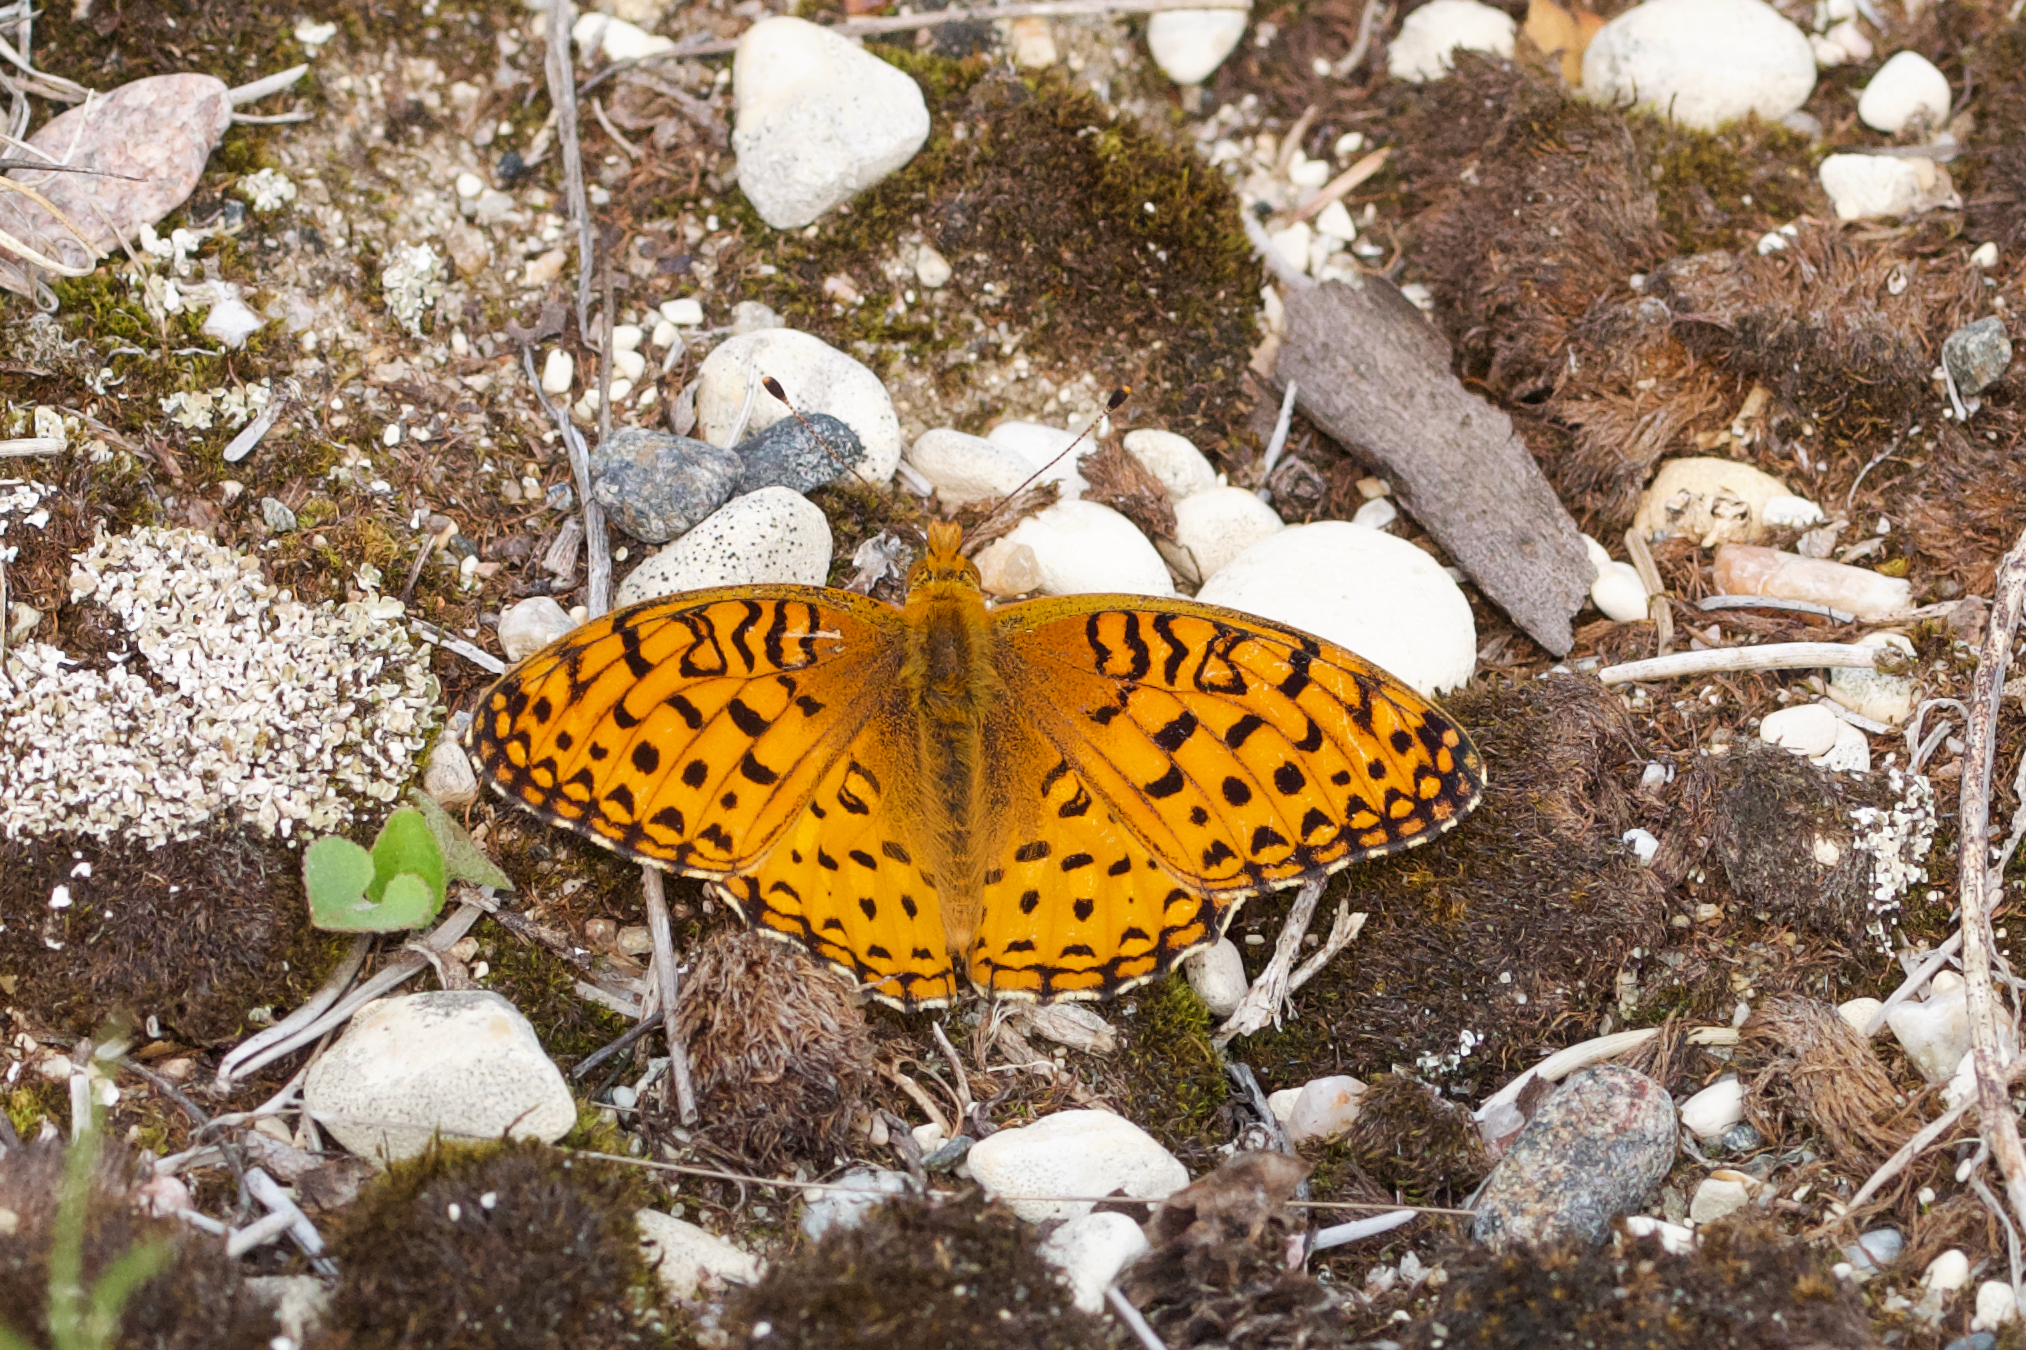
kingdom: Animalia
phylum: Arthropoda
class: Insecta
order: Lepidoptera
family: Nymphalidae
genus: Speyeria
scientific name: Speyeria aphrodite
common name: Aphrodite friitllary
